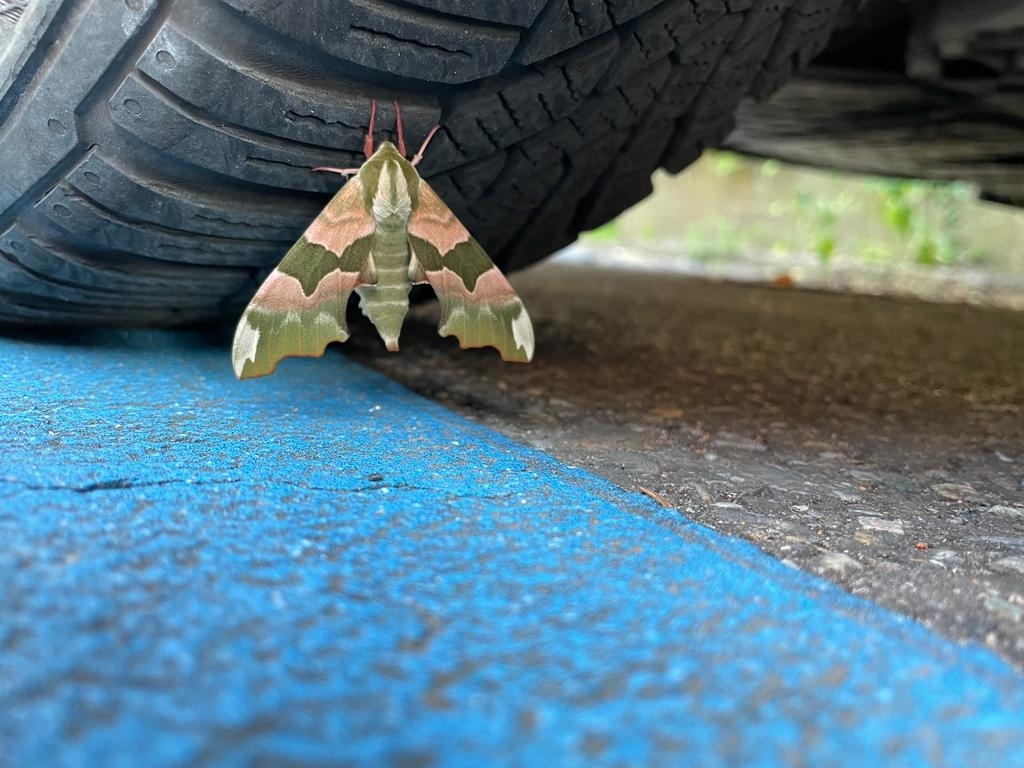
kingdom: Animalia
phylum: Arthropoda
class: Insecta
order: Lepidoptera
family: Sphingidae
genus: Mimas
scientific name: Mimas tiliae
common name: Lime hawk-moth
